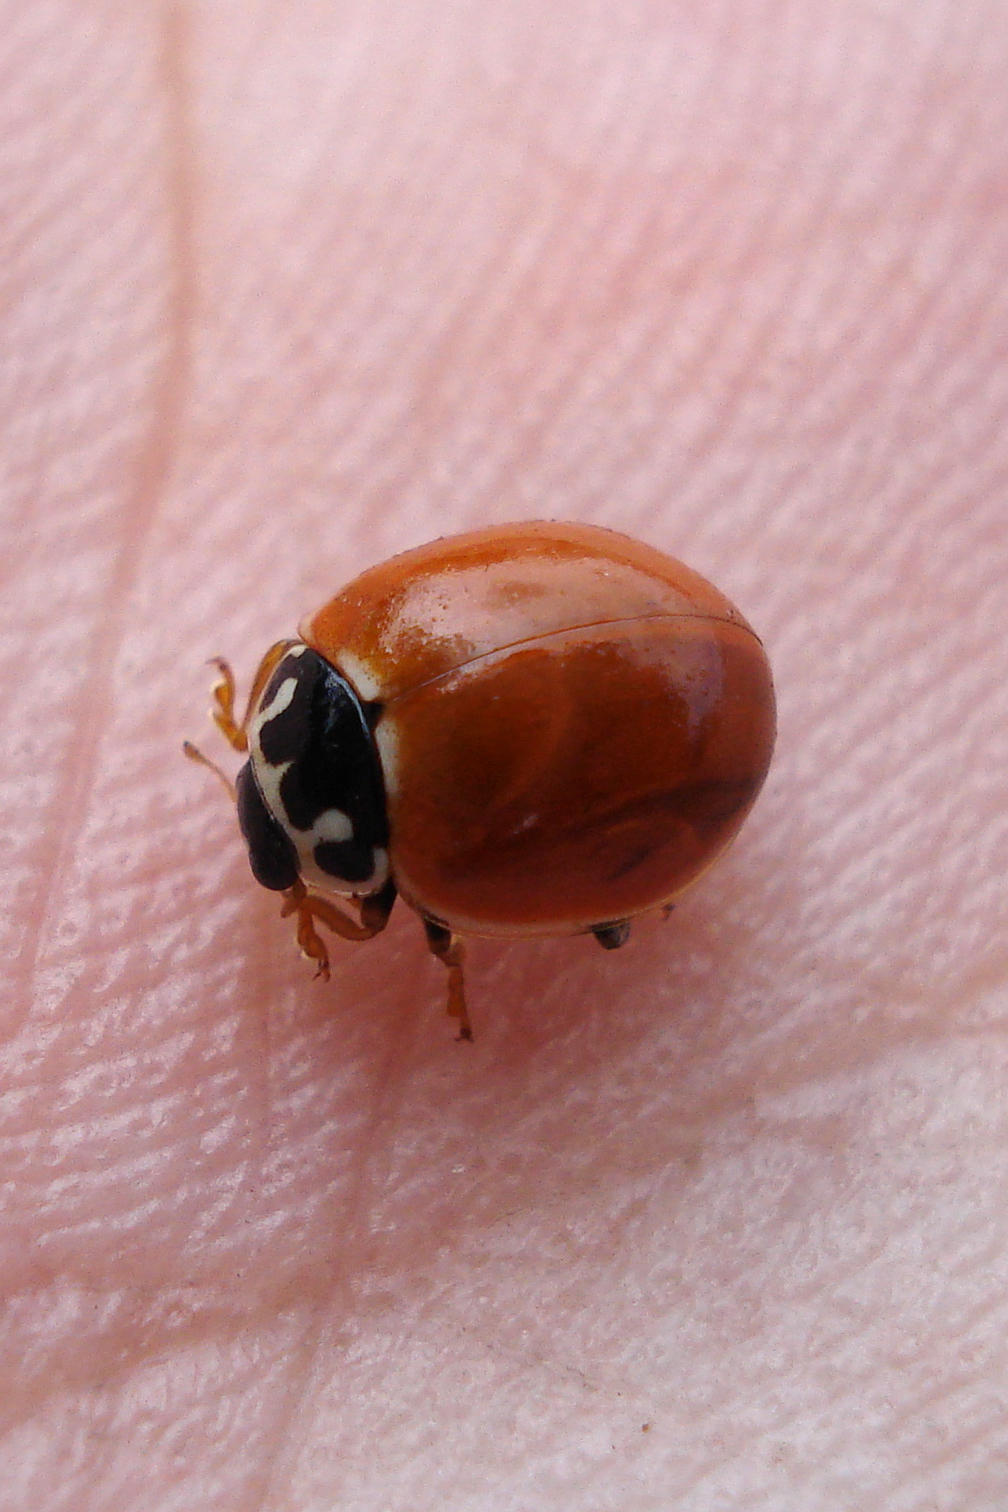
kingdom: Animalia
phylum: Arthropoda
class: Insecta
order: Coleoptera
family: Coccinellidae
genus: Cycloneda
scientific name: Cycloneda munda
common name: Polished lady beetle
